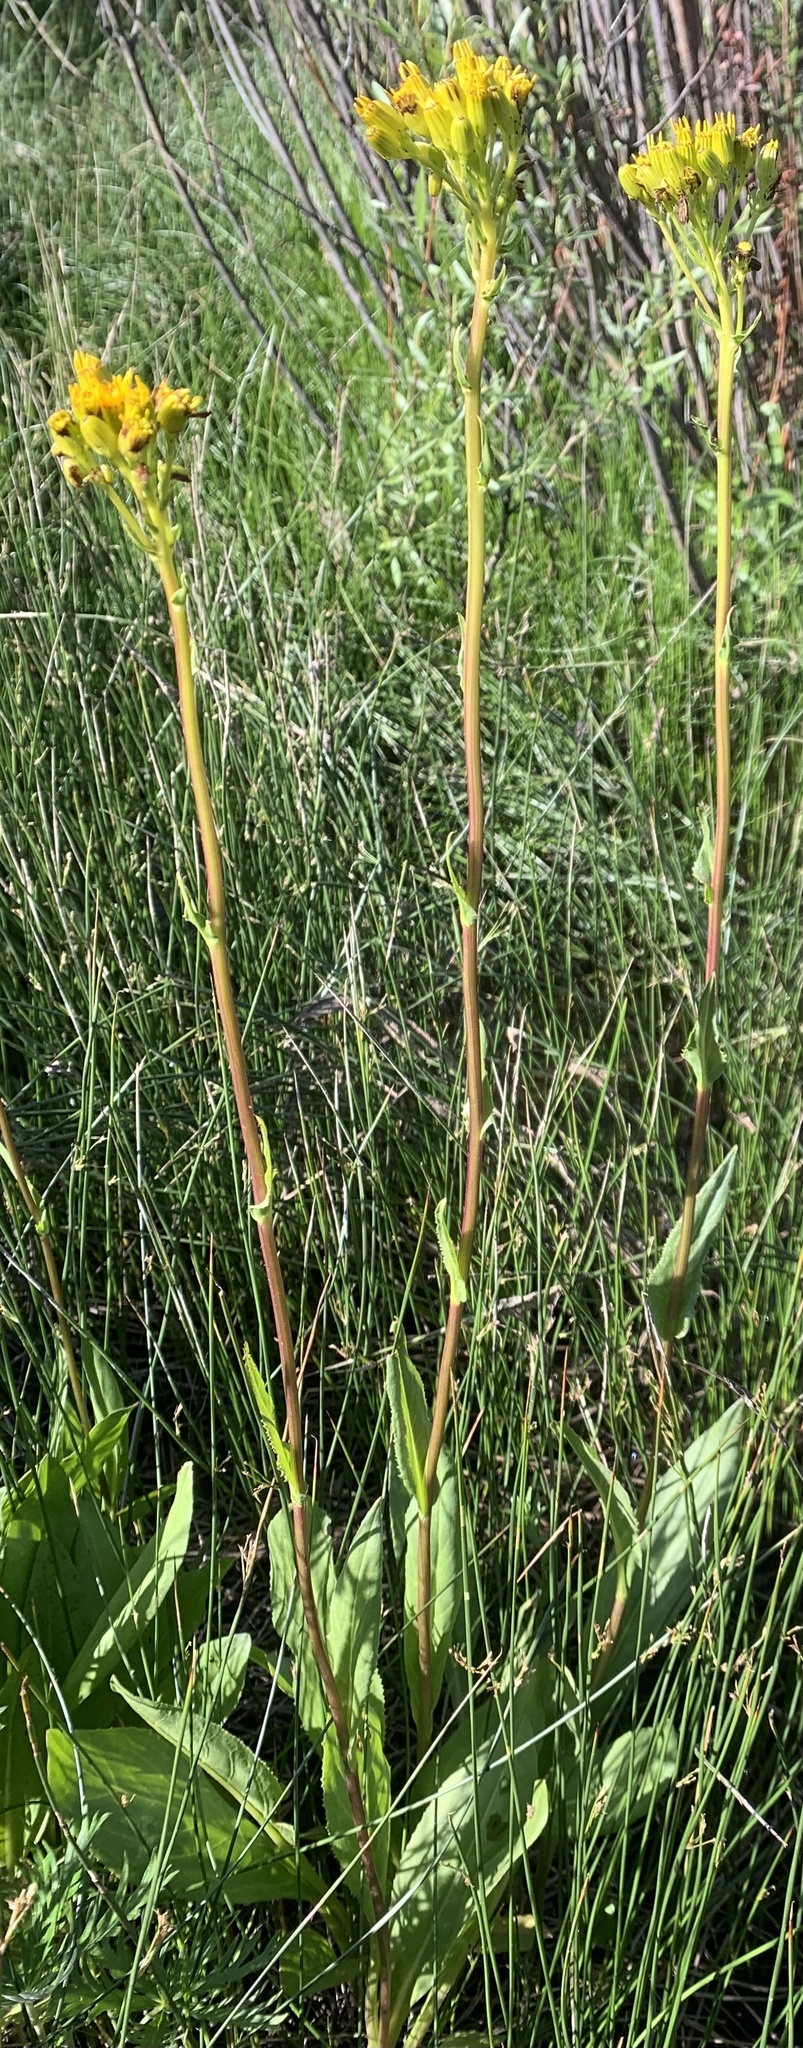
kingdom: Plantae
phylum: Tracheophyta
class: Magnoliopsida
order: Asterales
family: Asteraceae
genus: Senecio
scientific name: Senecio hydrophiloides
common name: Stout meadow groundsel
